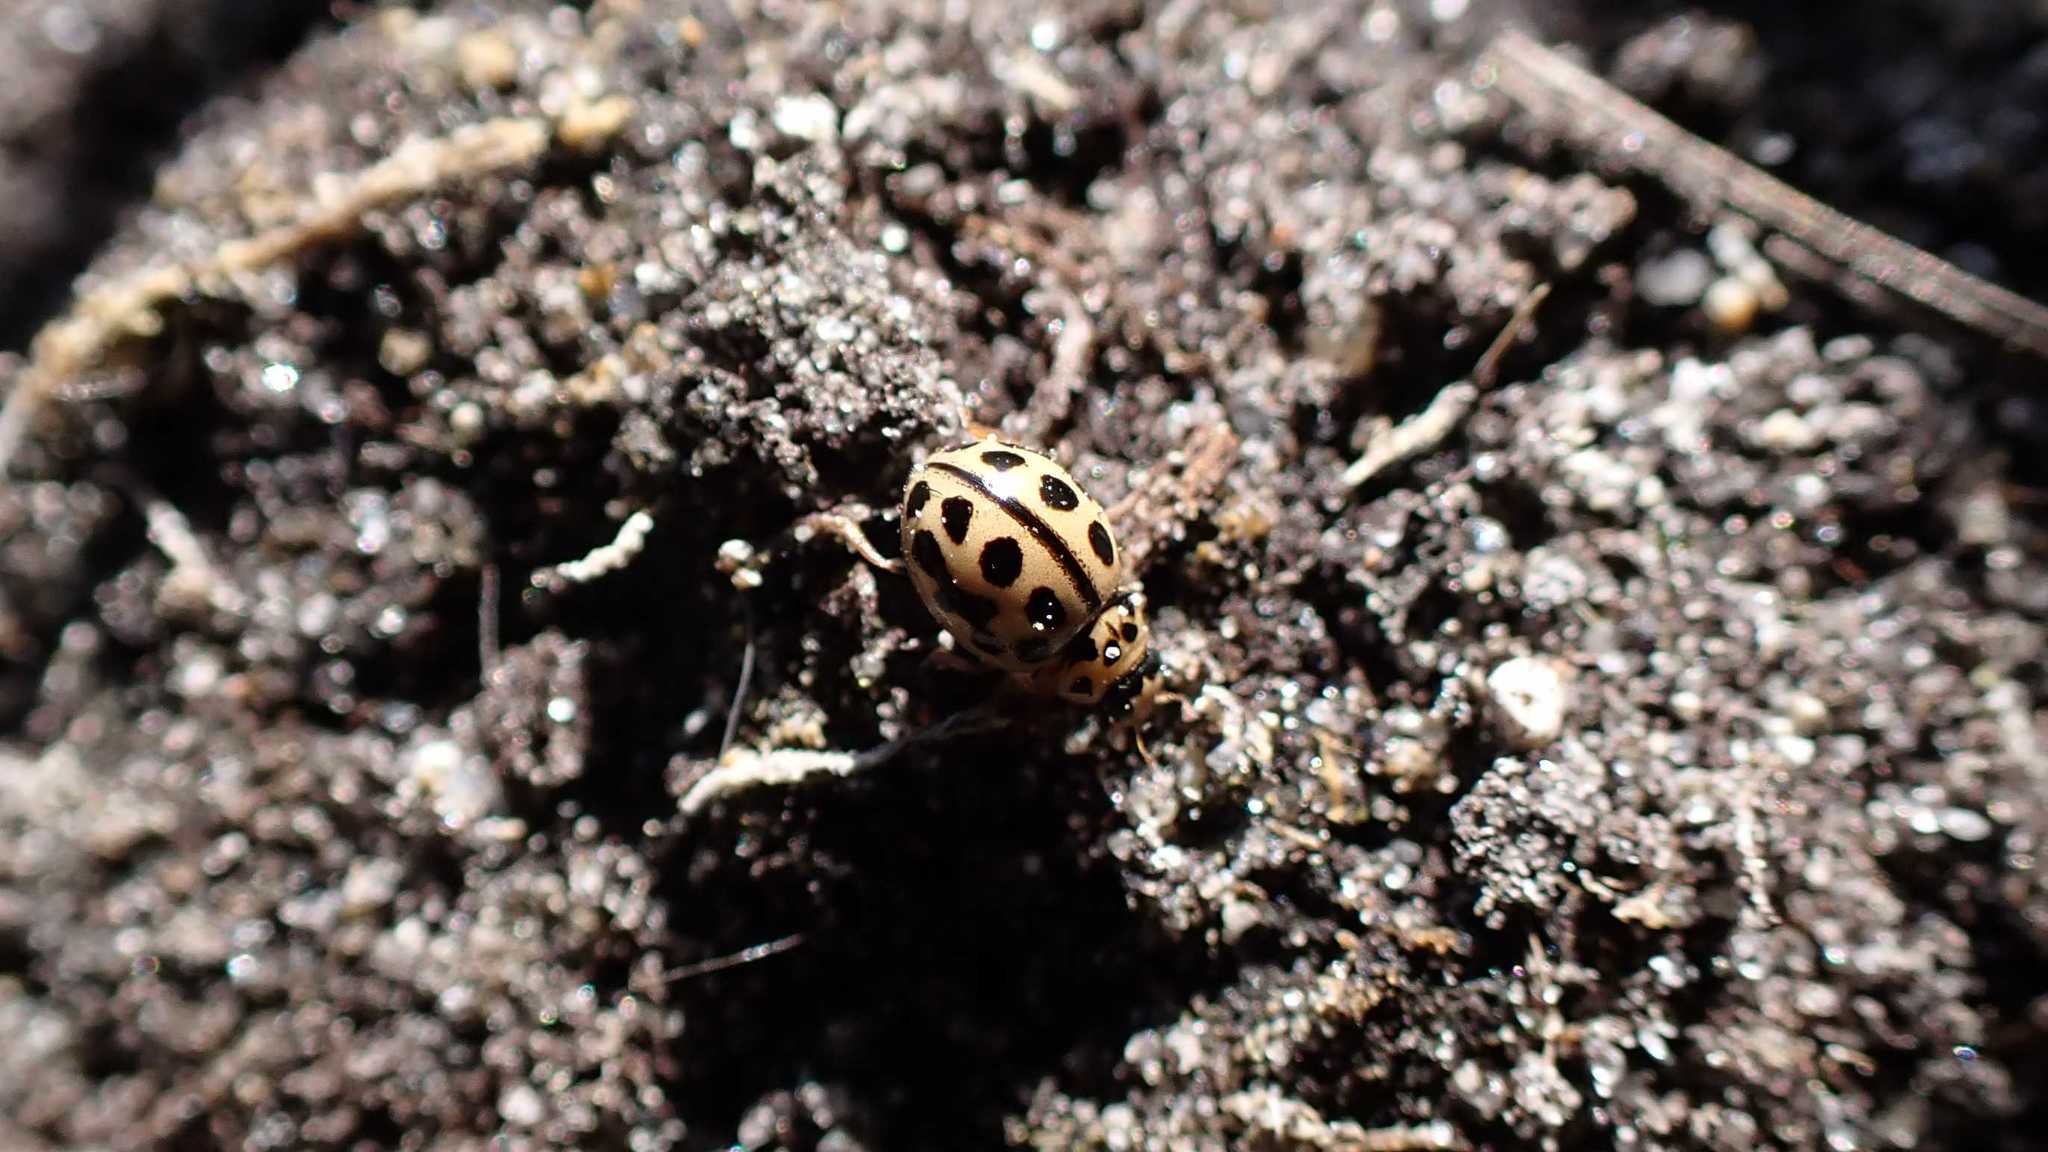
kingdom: Animalia
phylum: Arthropoda
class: Insecta
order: Coleoptera
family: Coccinellidae
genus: Tytthaspis
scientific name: Tytthaspis sedecimpunctata
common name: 16-spot ladybird
